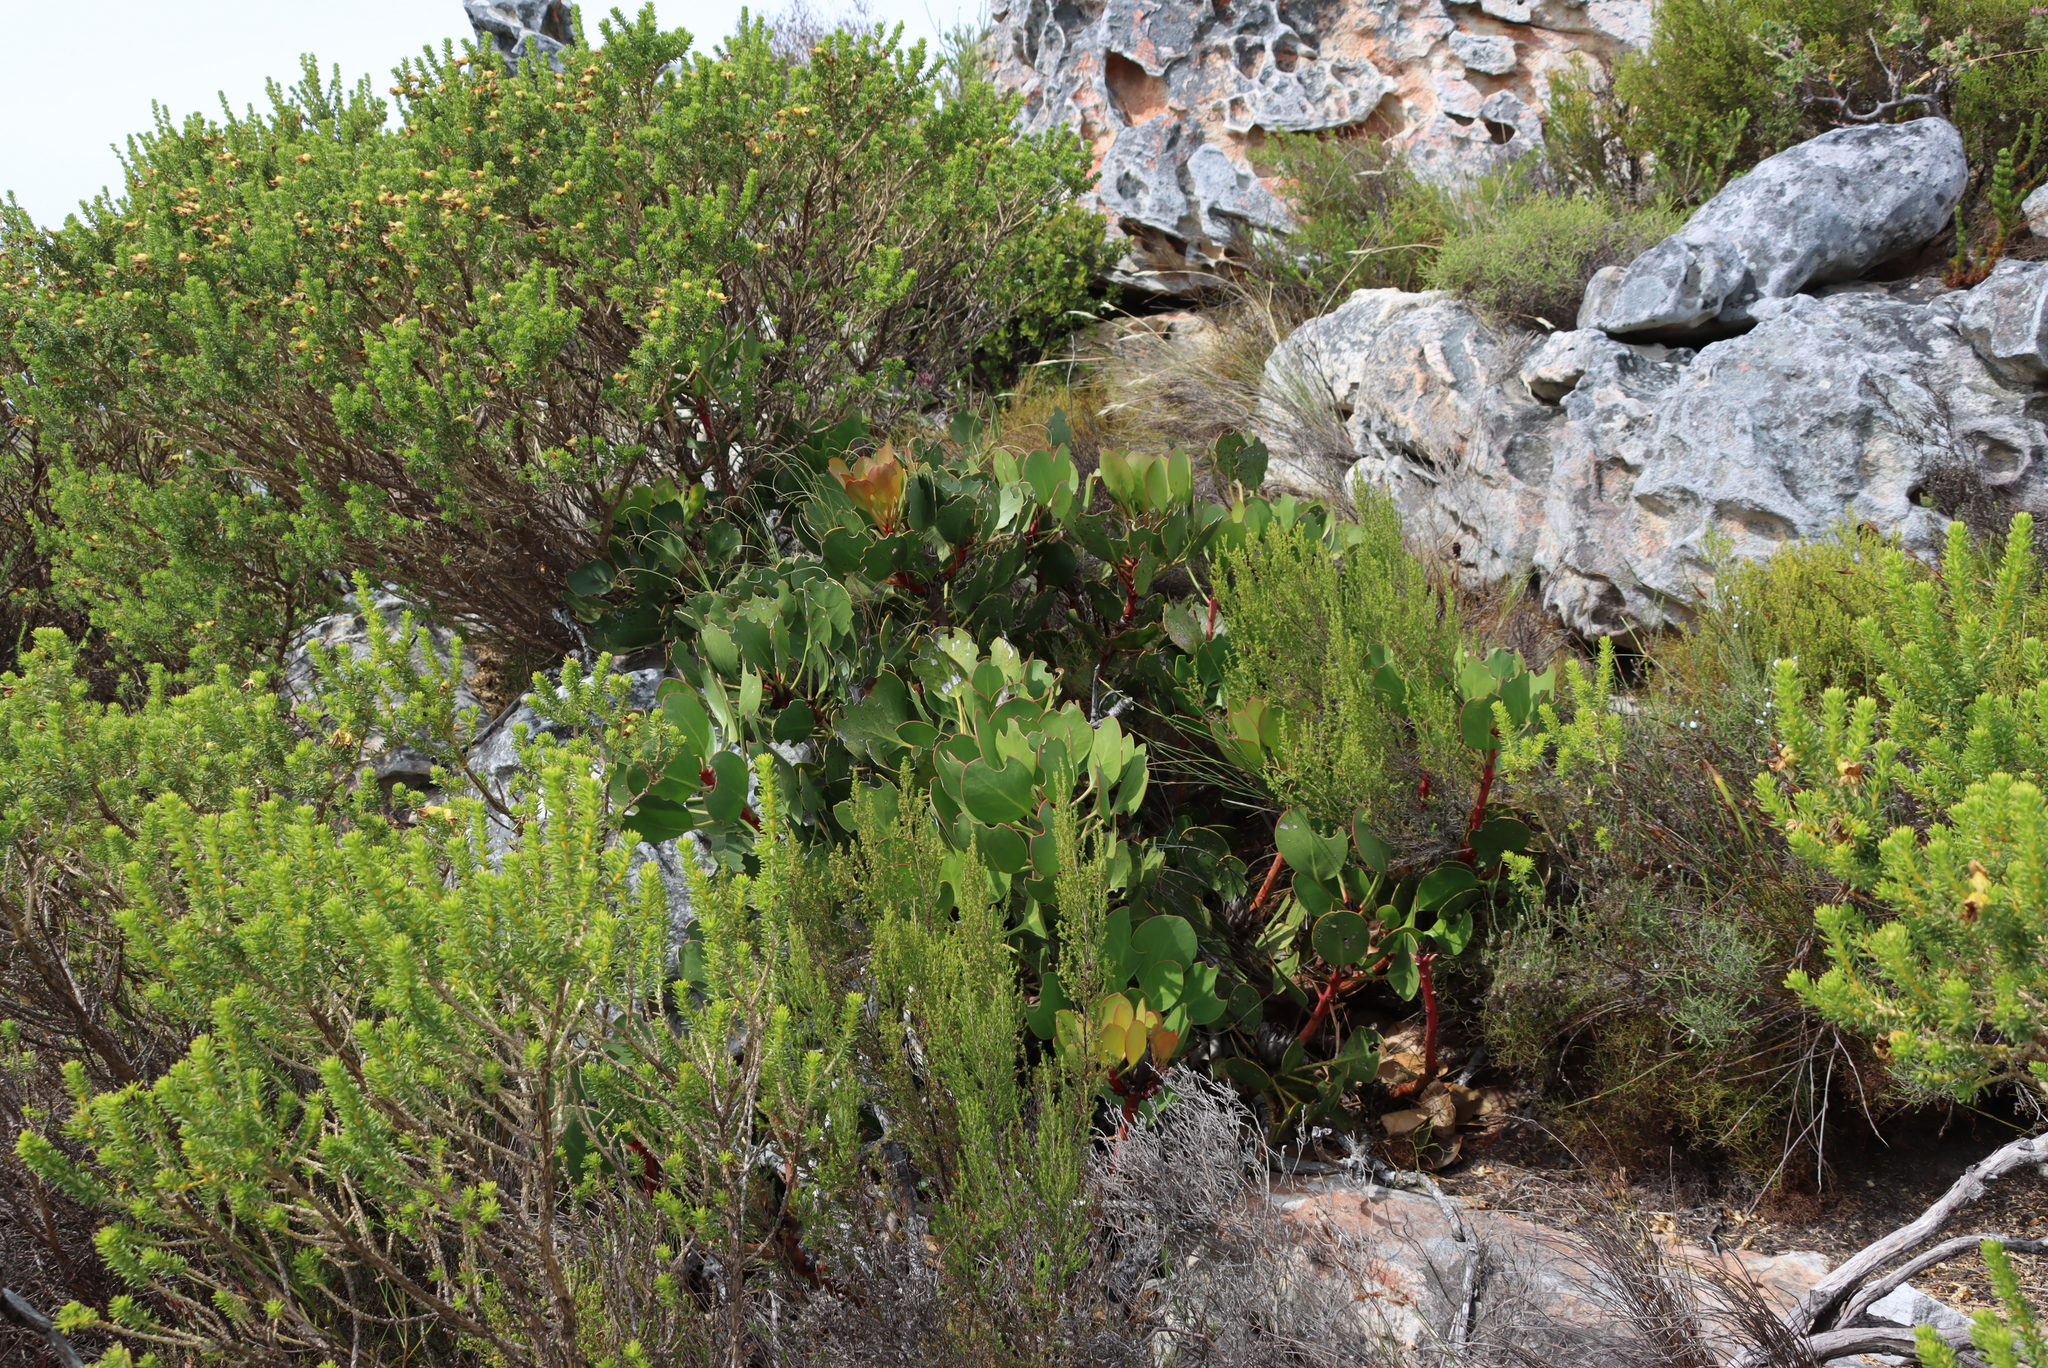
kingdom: Plantae
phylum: Tracheophyta
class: Magnoliopsida
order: Proteales
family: Proteaceae
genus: Protea
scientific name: Protea cynaroides
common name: King protea
